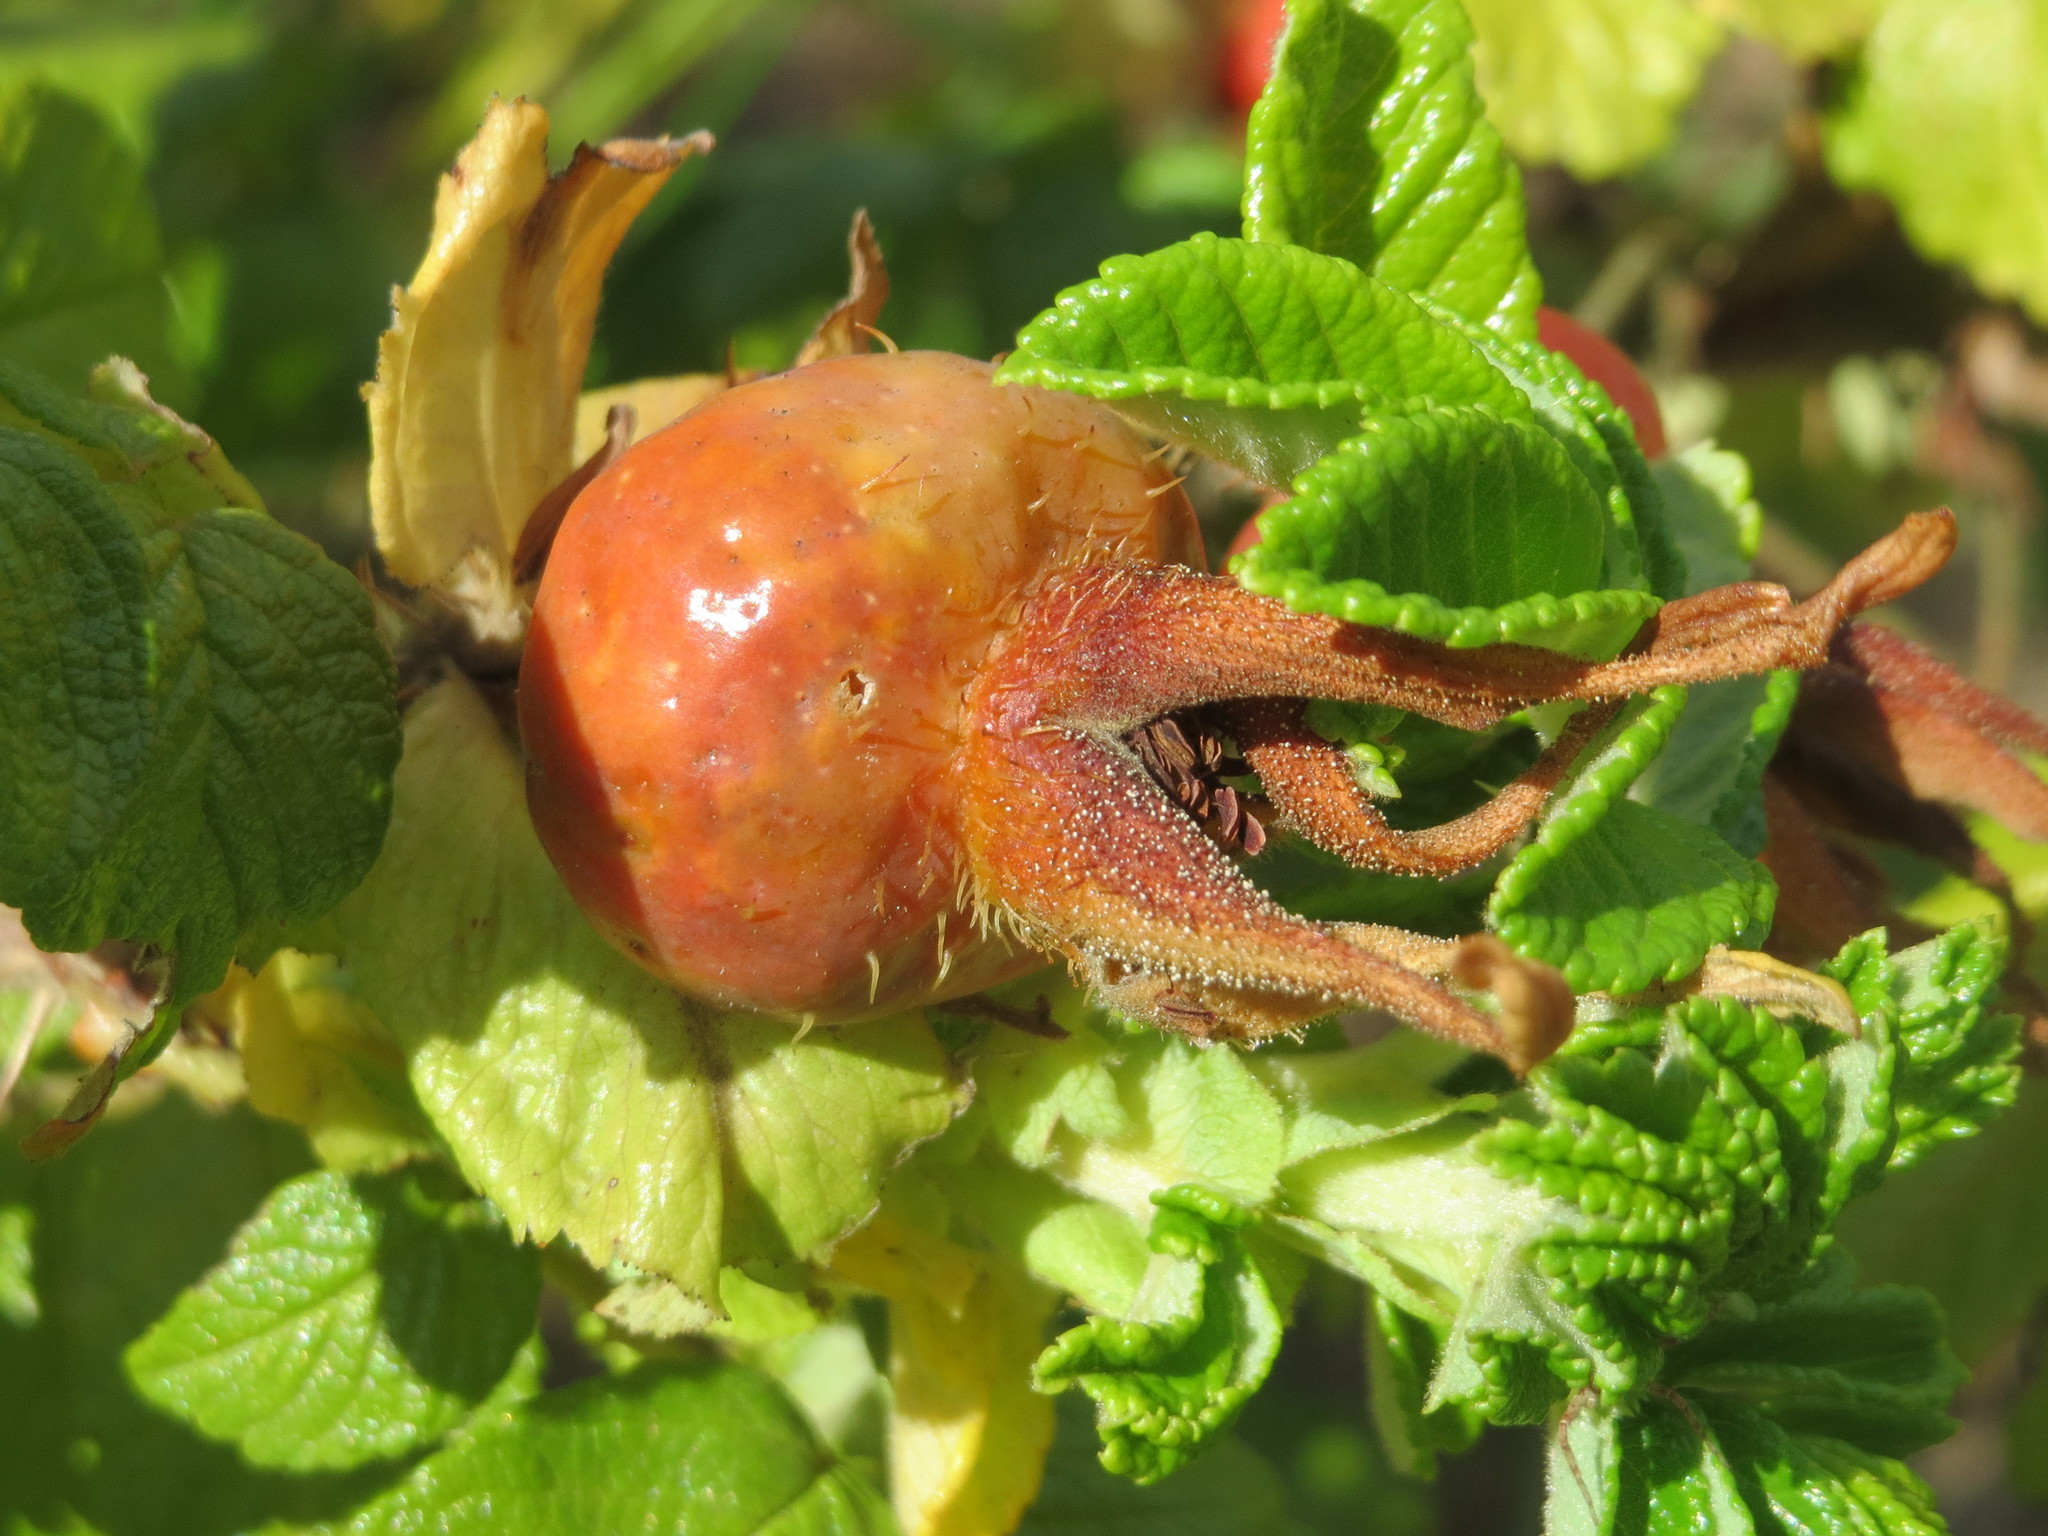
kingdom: Plantae
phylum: Tracheophyta
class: Magnoliopsida
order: Rosales
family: Rosaceae
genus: Rosa
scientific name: Rosa rugosa
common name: Japanese rose
